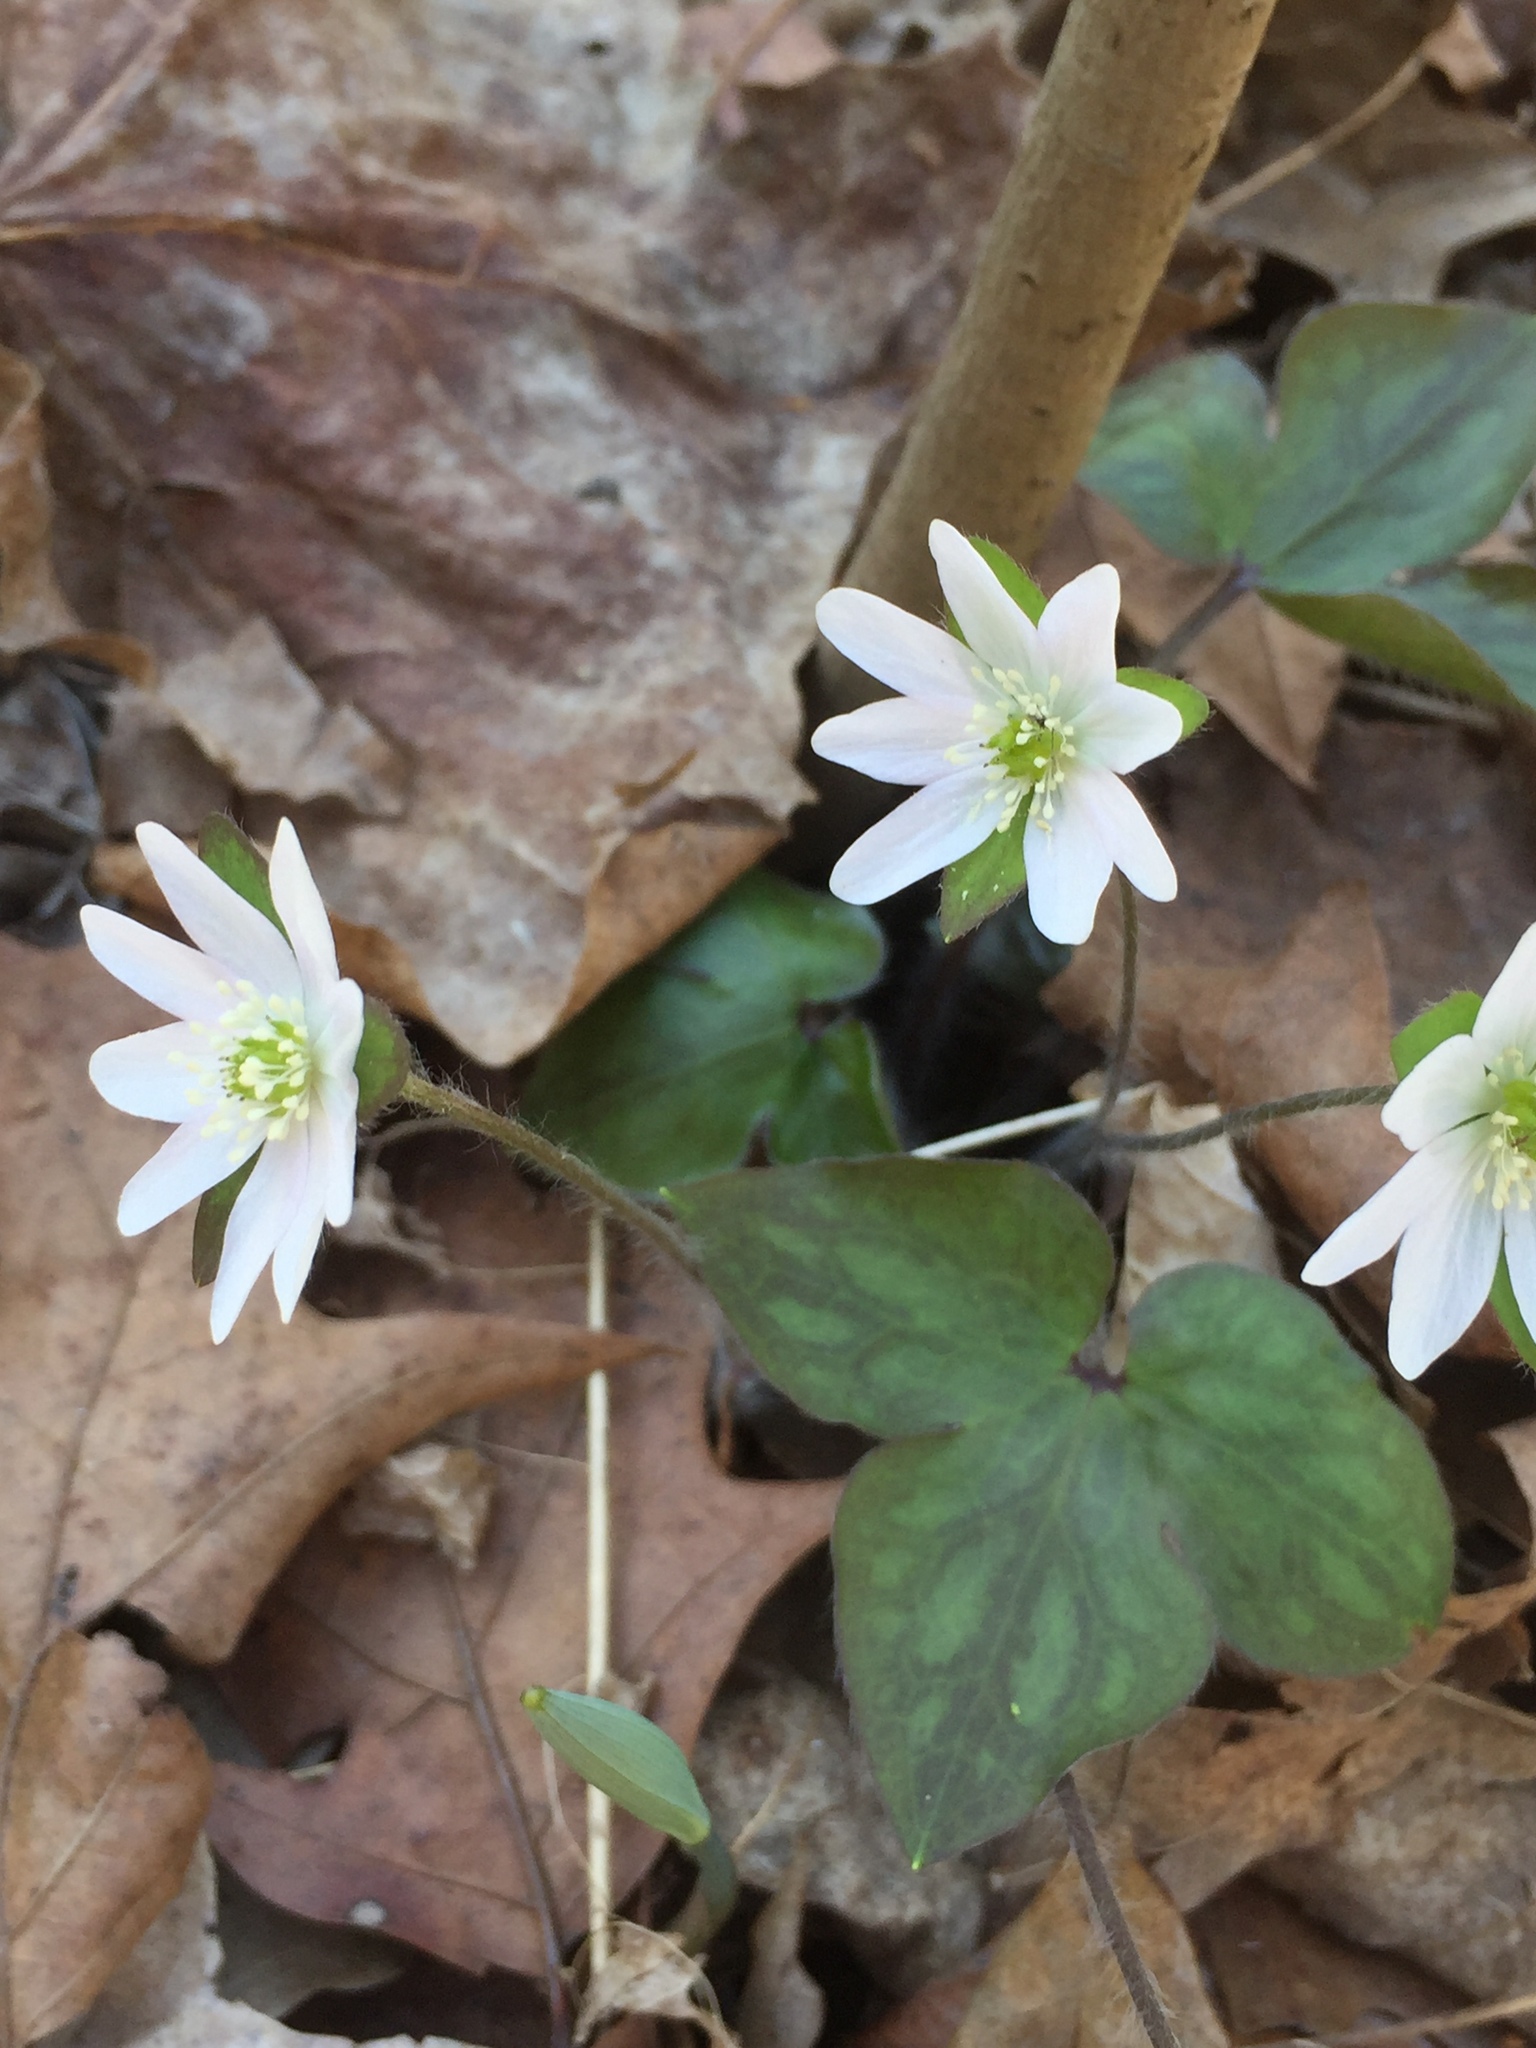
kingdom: Plantae
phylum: Tracheophyta
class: Magnoliopsida
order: Ranunculales
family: Ranunculaceae
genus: Hepatica
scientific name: Hepatica acutiloba
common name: Sharp-lobed hepatica
